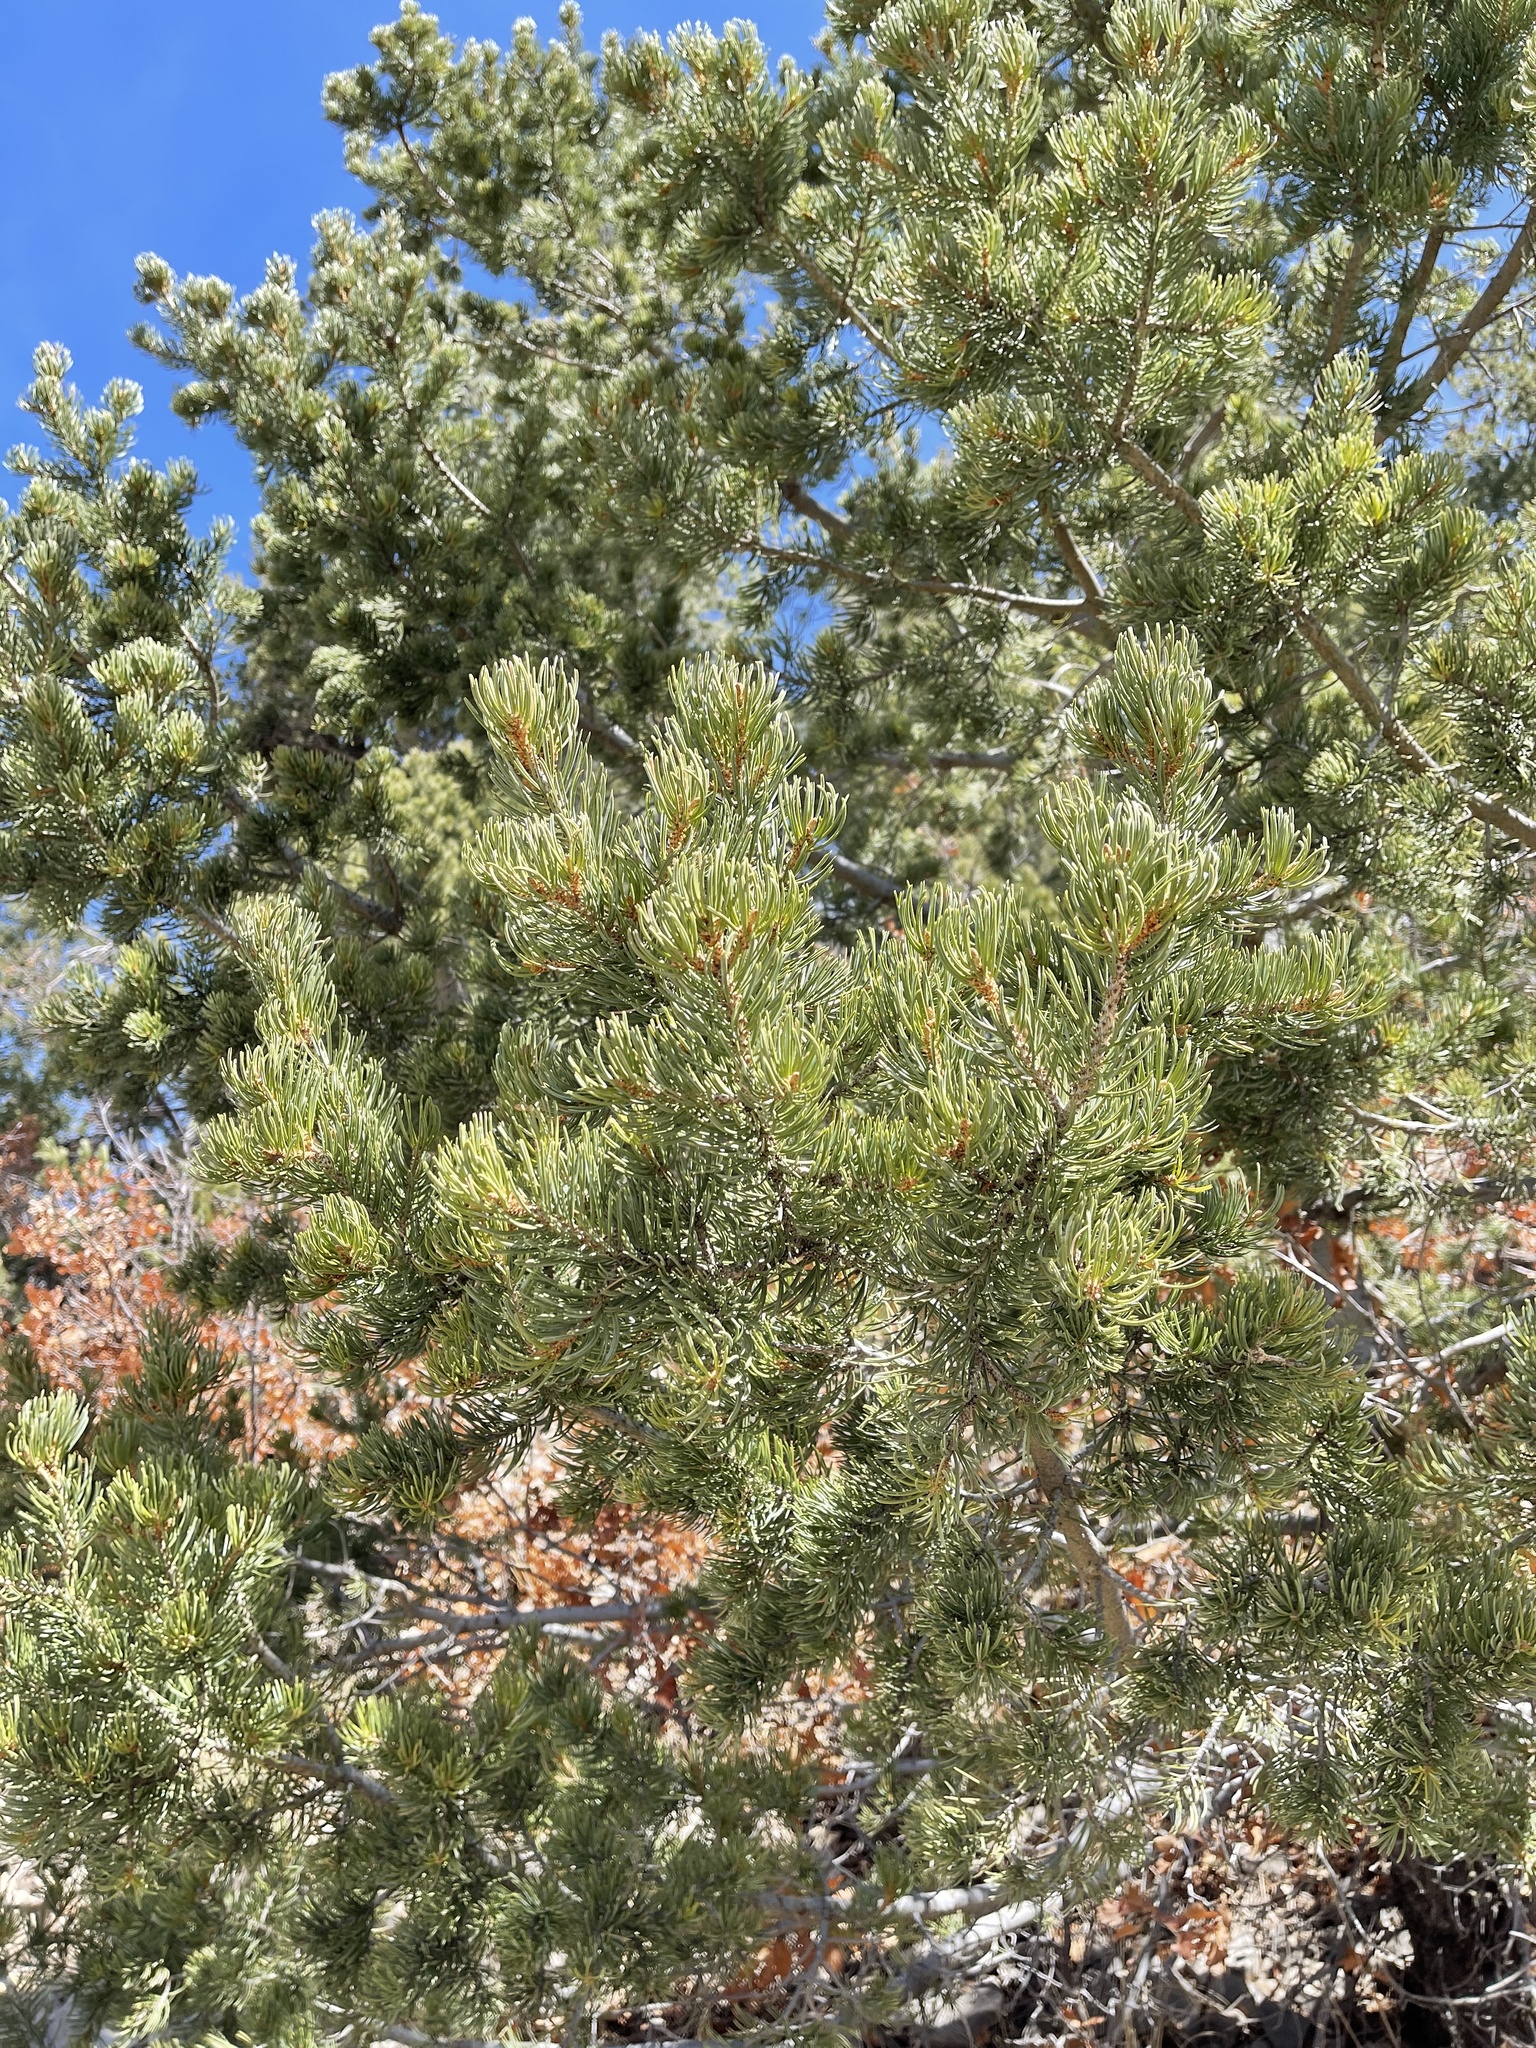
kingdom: Plantae
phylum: Tracheophyta
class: Pinopsida
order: Pinales
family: Pinaceae
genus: Pinus
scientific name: Pinus edulis
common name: Colorado pinyon
